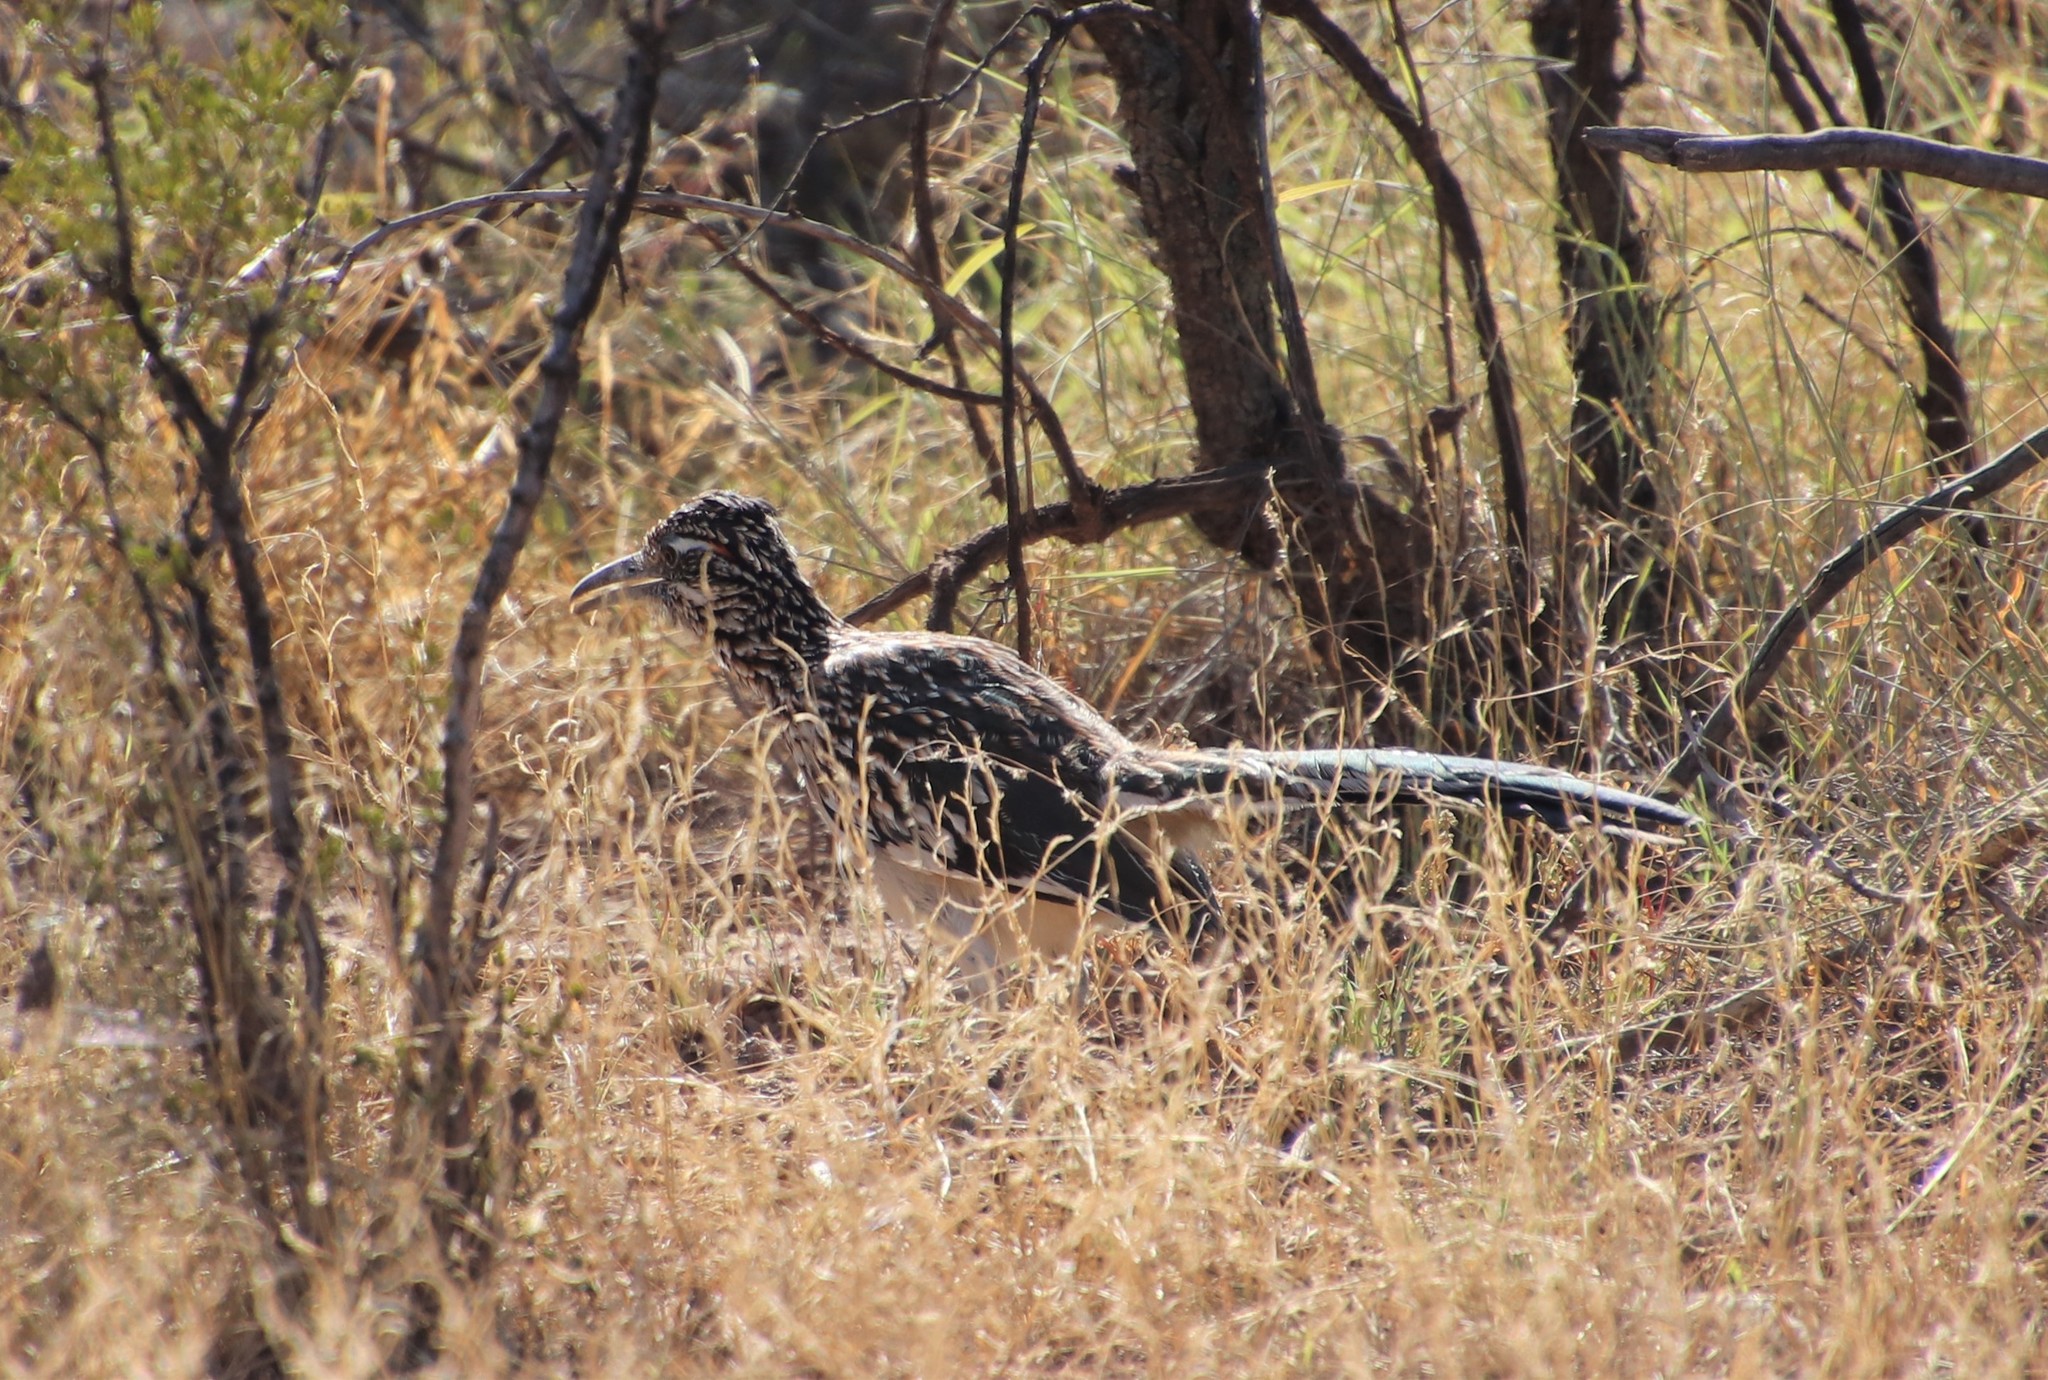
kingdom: Animalia
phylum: Chordata
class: Aves
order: Cuculiformes
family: Cuculidae
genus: Geococcyx
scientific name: Geococcyx californianus
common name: Greater roadrunner
